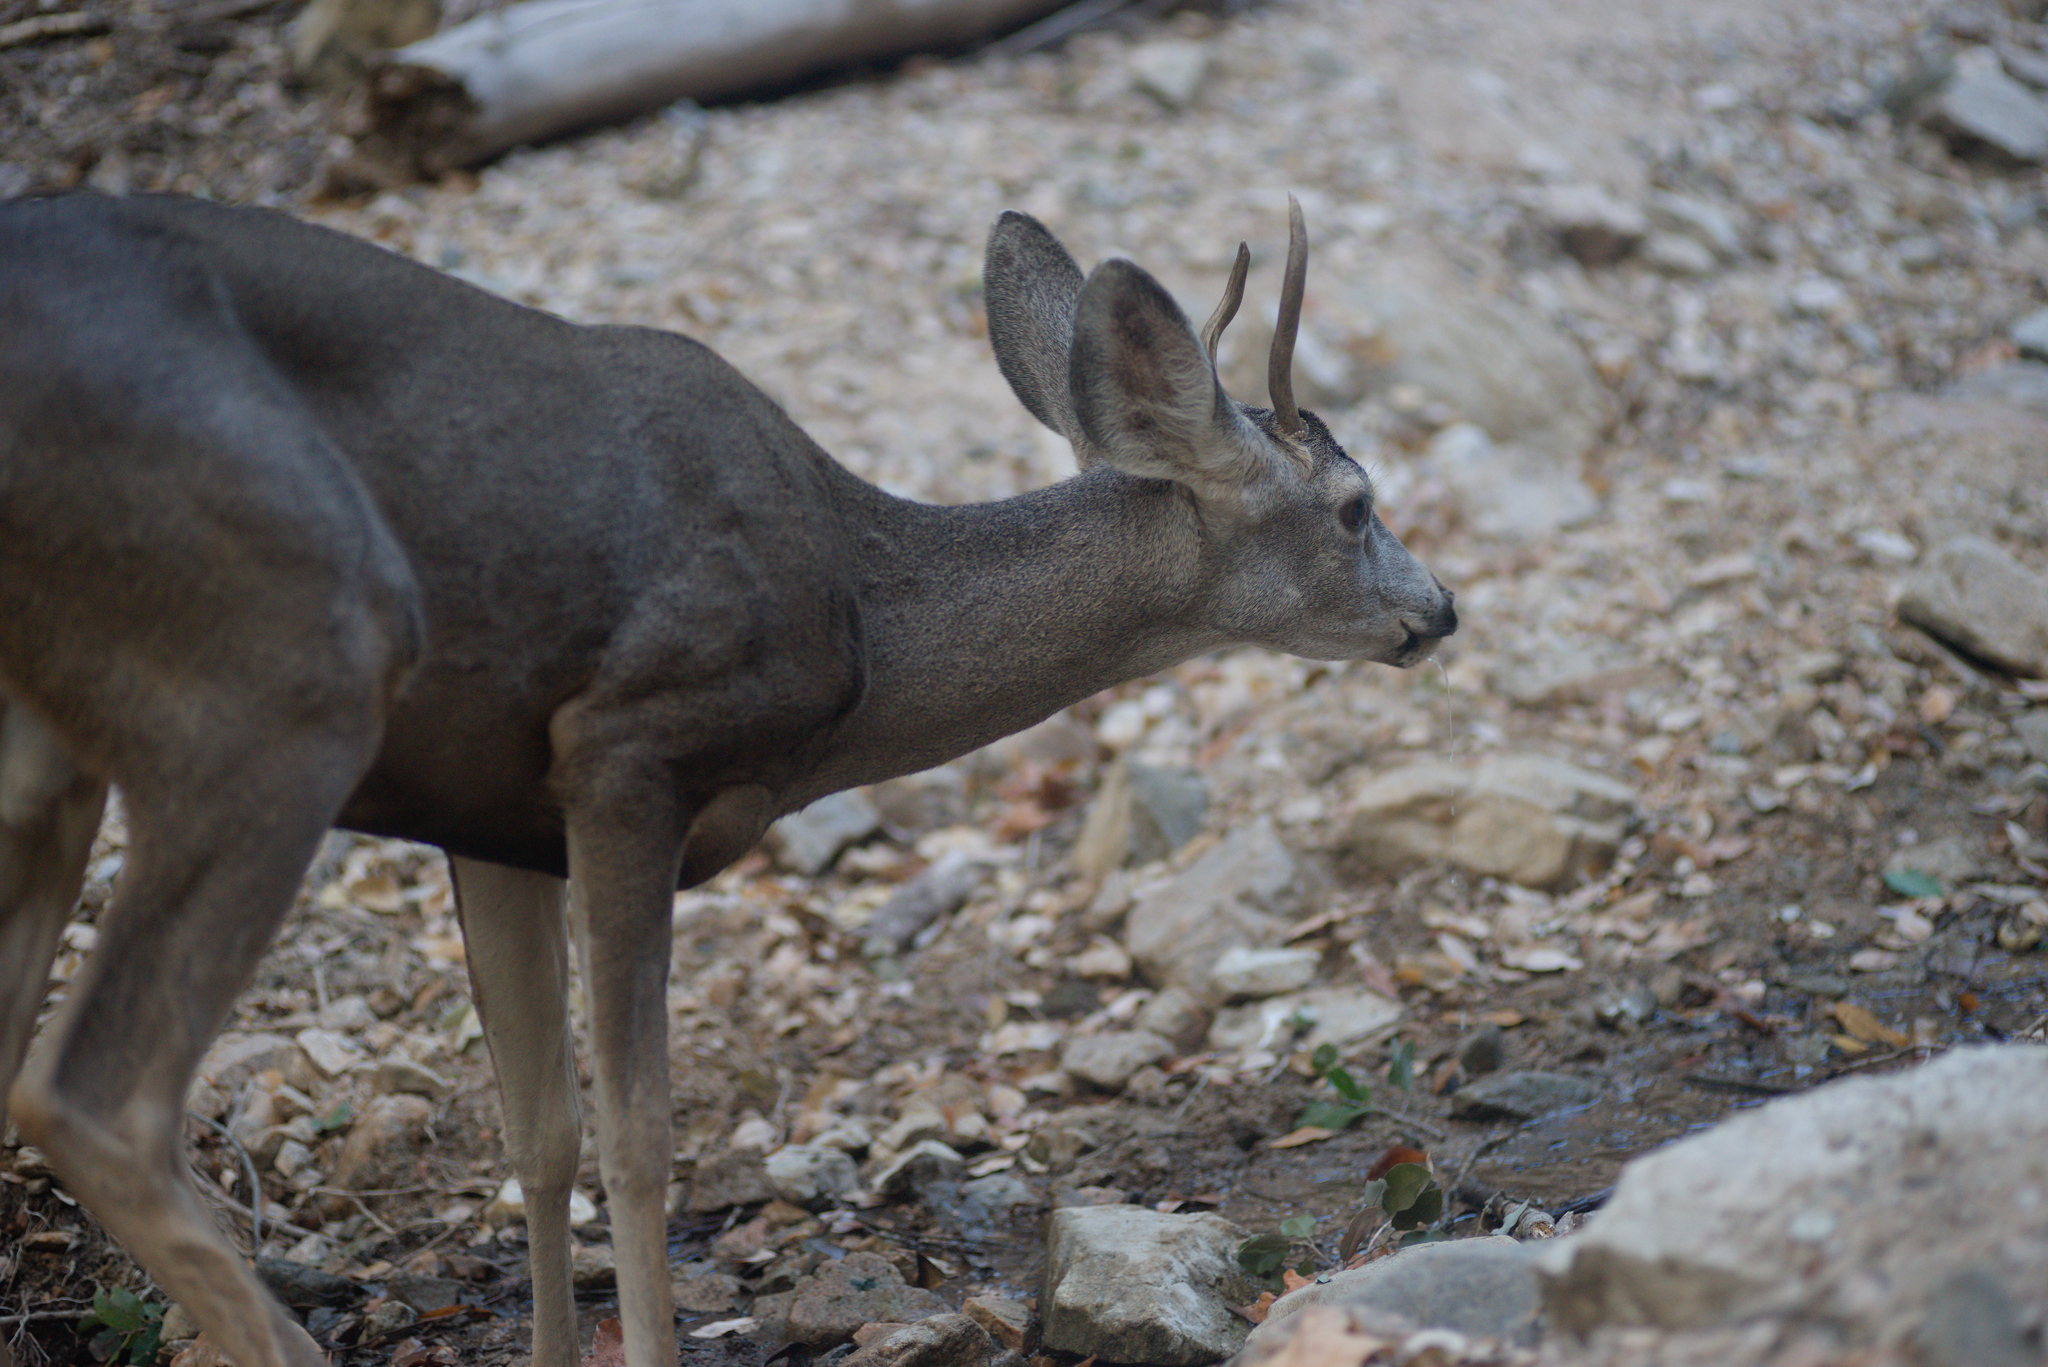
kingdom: Animalia
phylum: Chordata
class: Mammalia
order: Artiodactyla
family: Cervidae
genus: Odocoileus
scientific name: Odocoileus hemionus
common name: Mule deer
